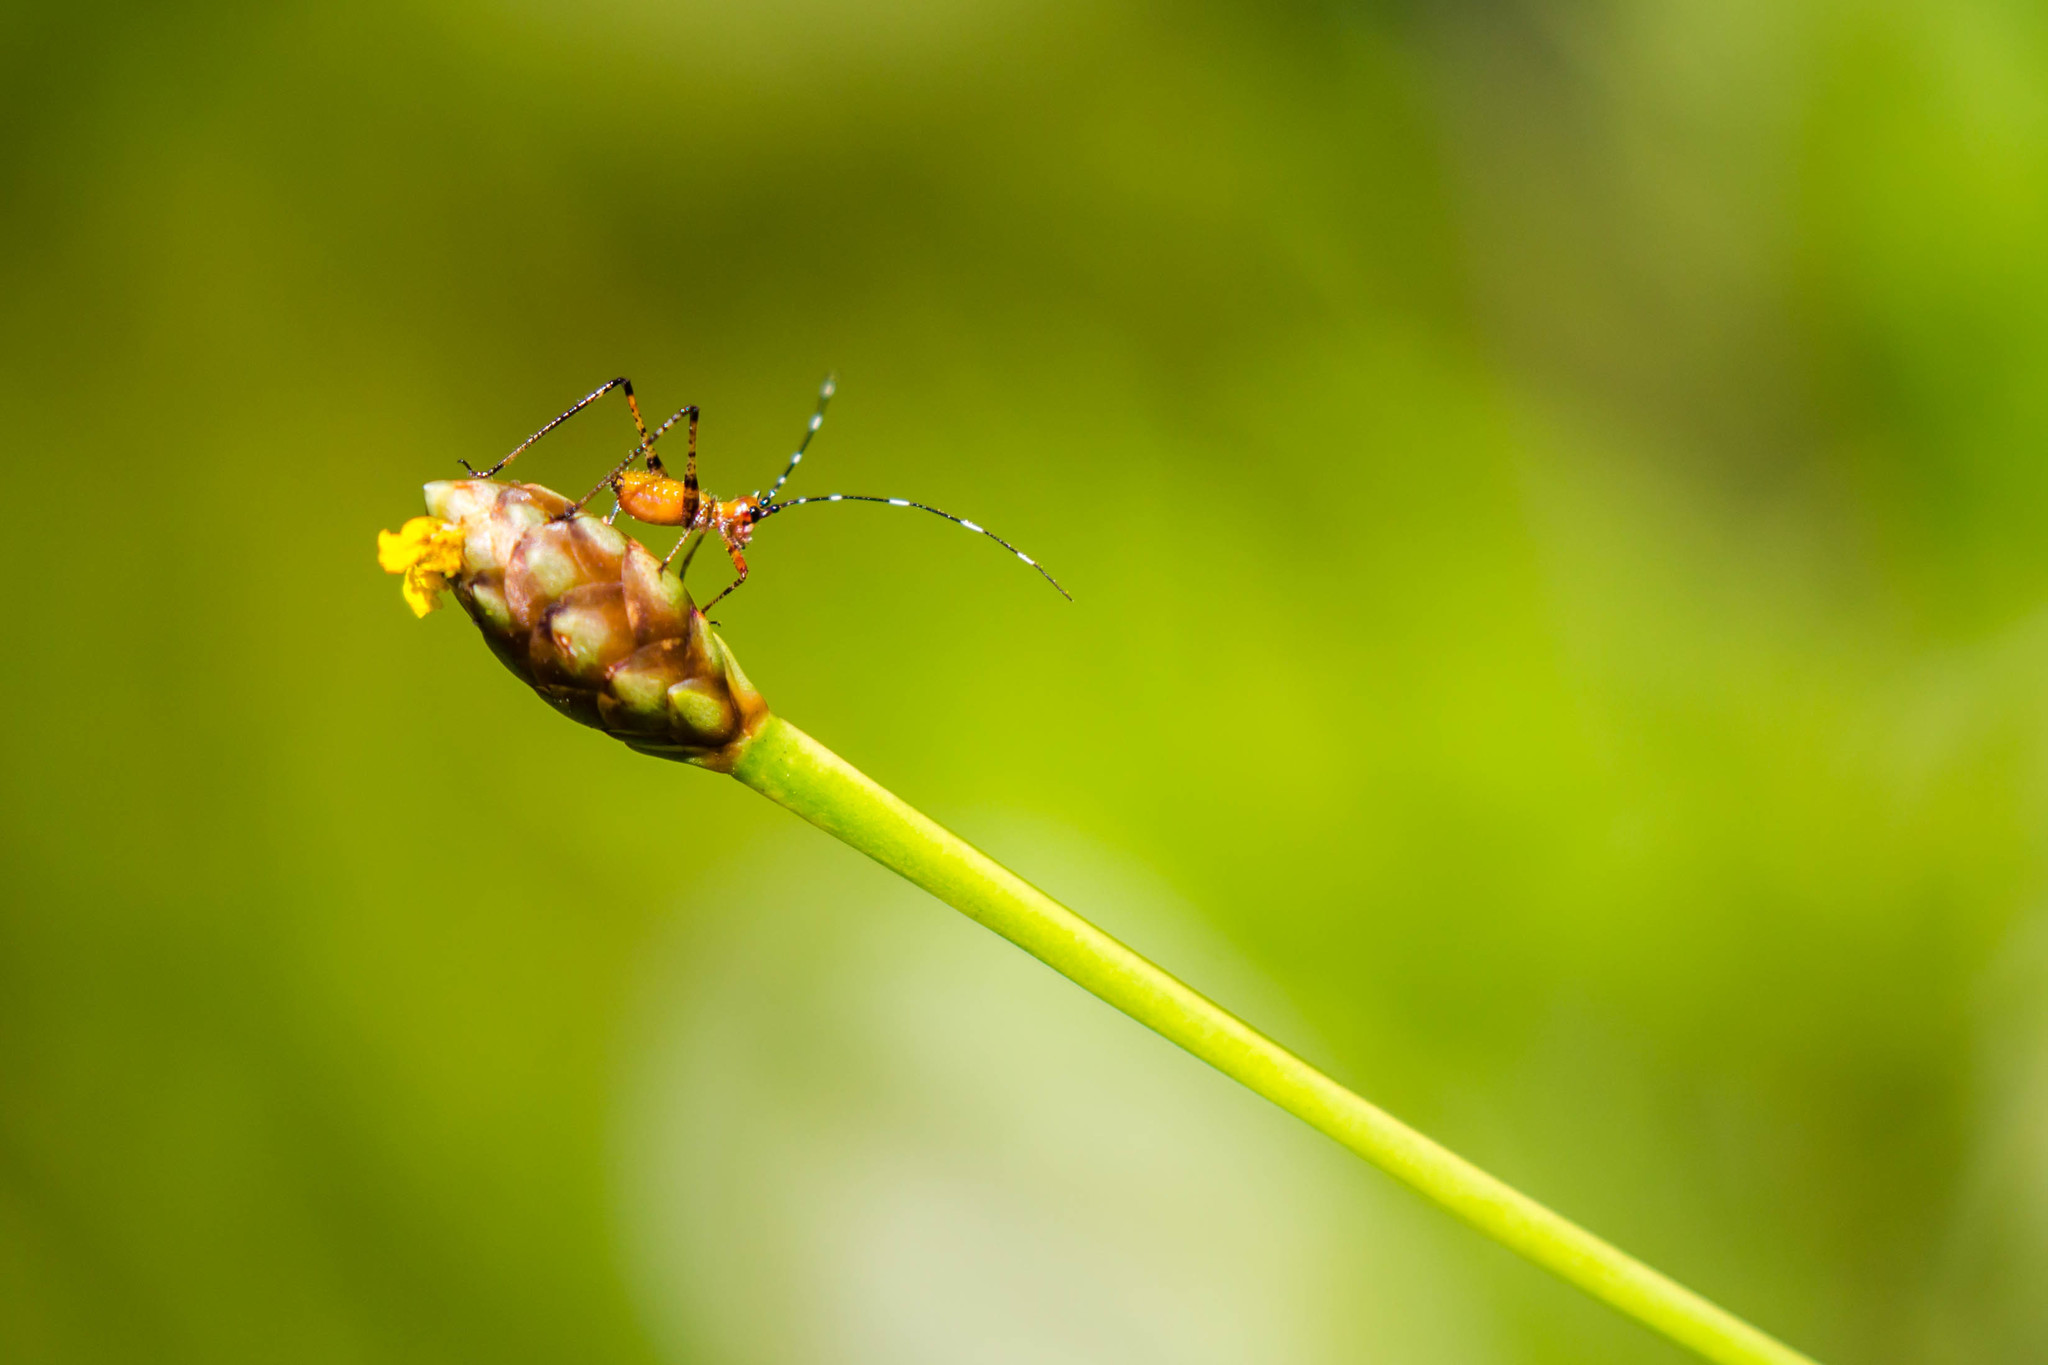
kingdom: Animalia
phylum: Arthropoda
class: Insecta
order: Orthoptera
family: Tettigoniidae
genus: Scudderia
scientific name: Scudderia cuneata
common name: Southeastern bush katydid
